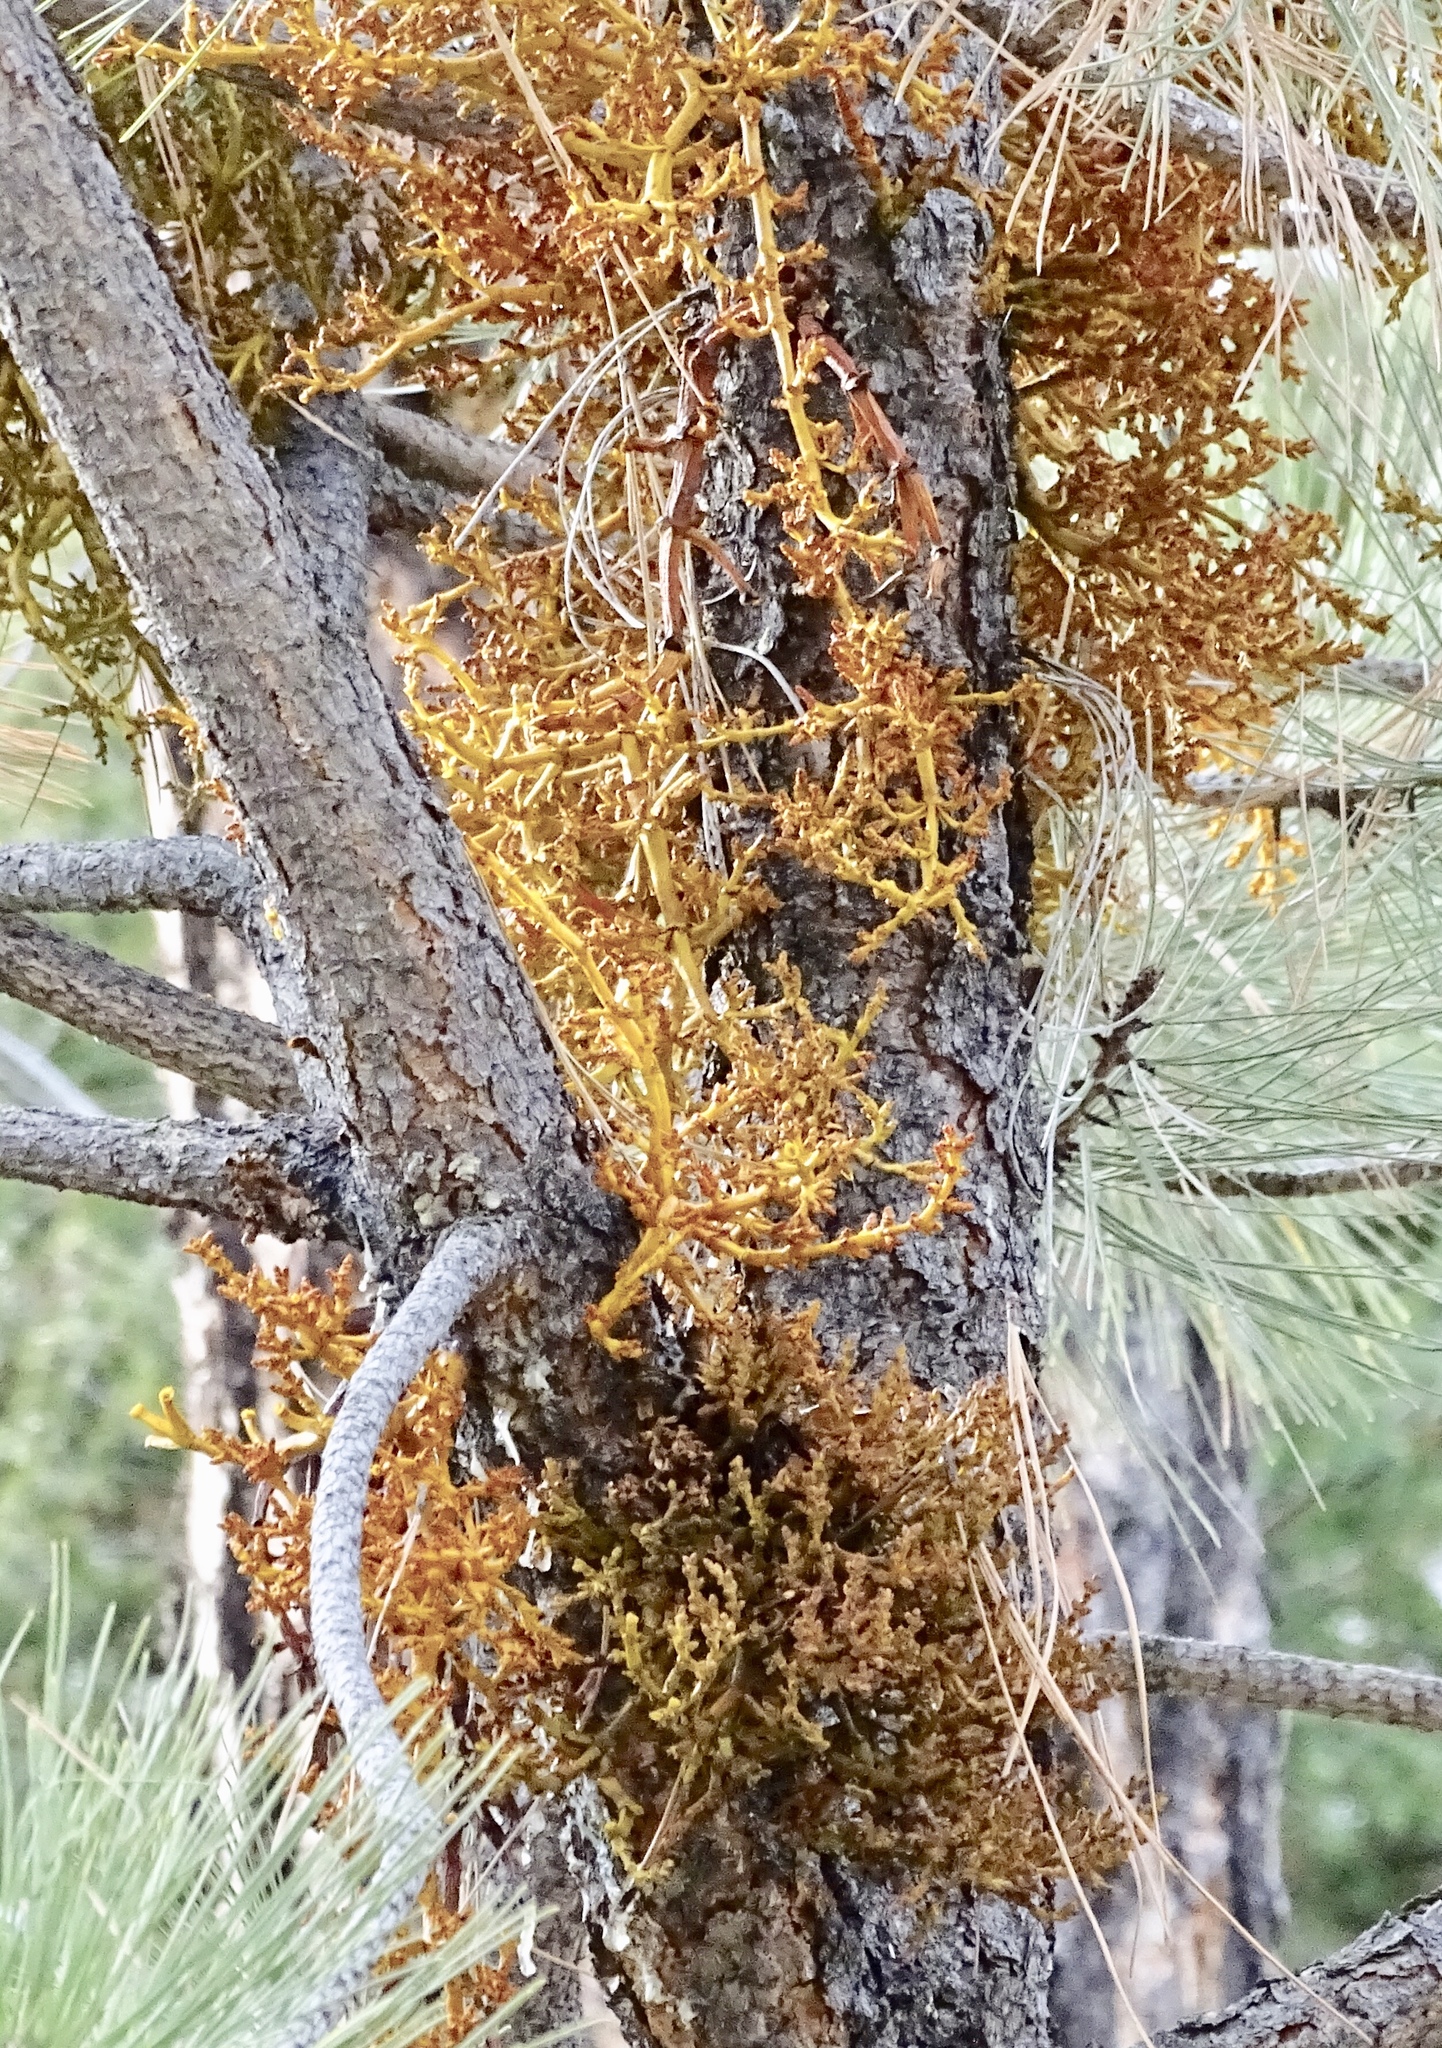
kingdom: Plantae
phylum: Tracheophyta
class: Magnoliopsida
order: Santalales
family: Viscaceae
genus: Arceuthobium
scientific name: Arceuthobium vaginatum
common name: Southwestern dwarf-mistletoe
